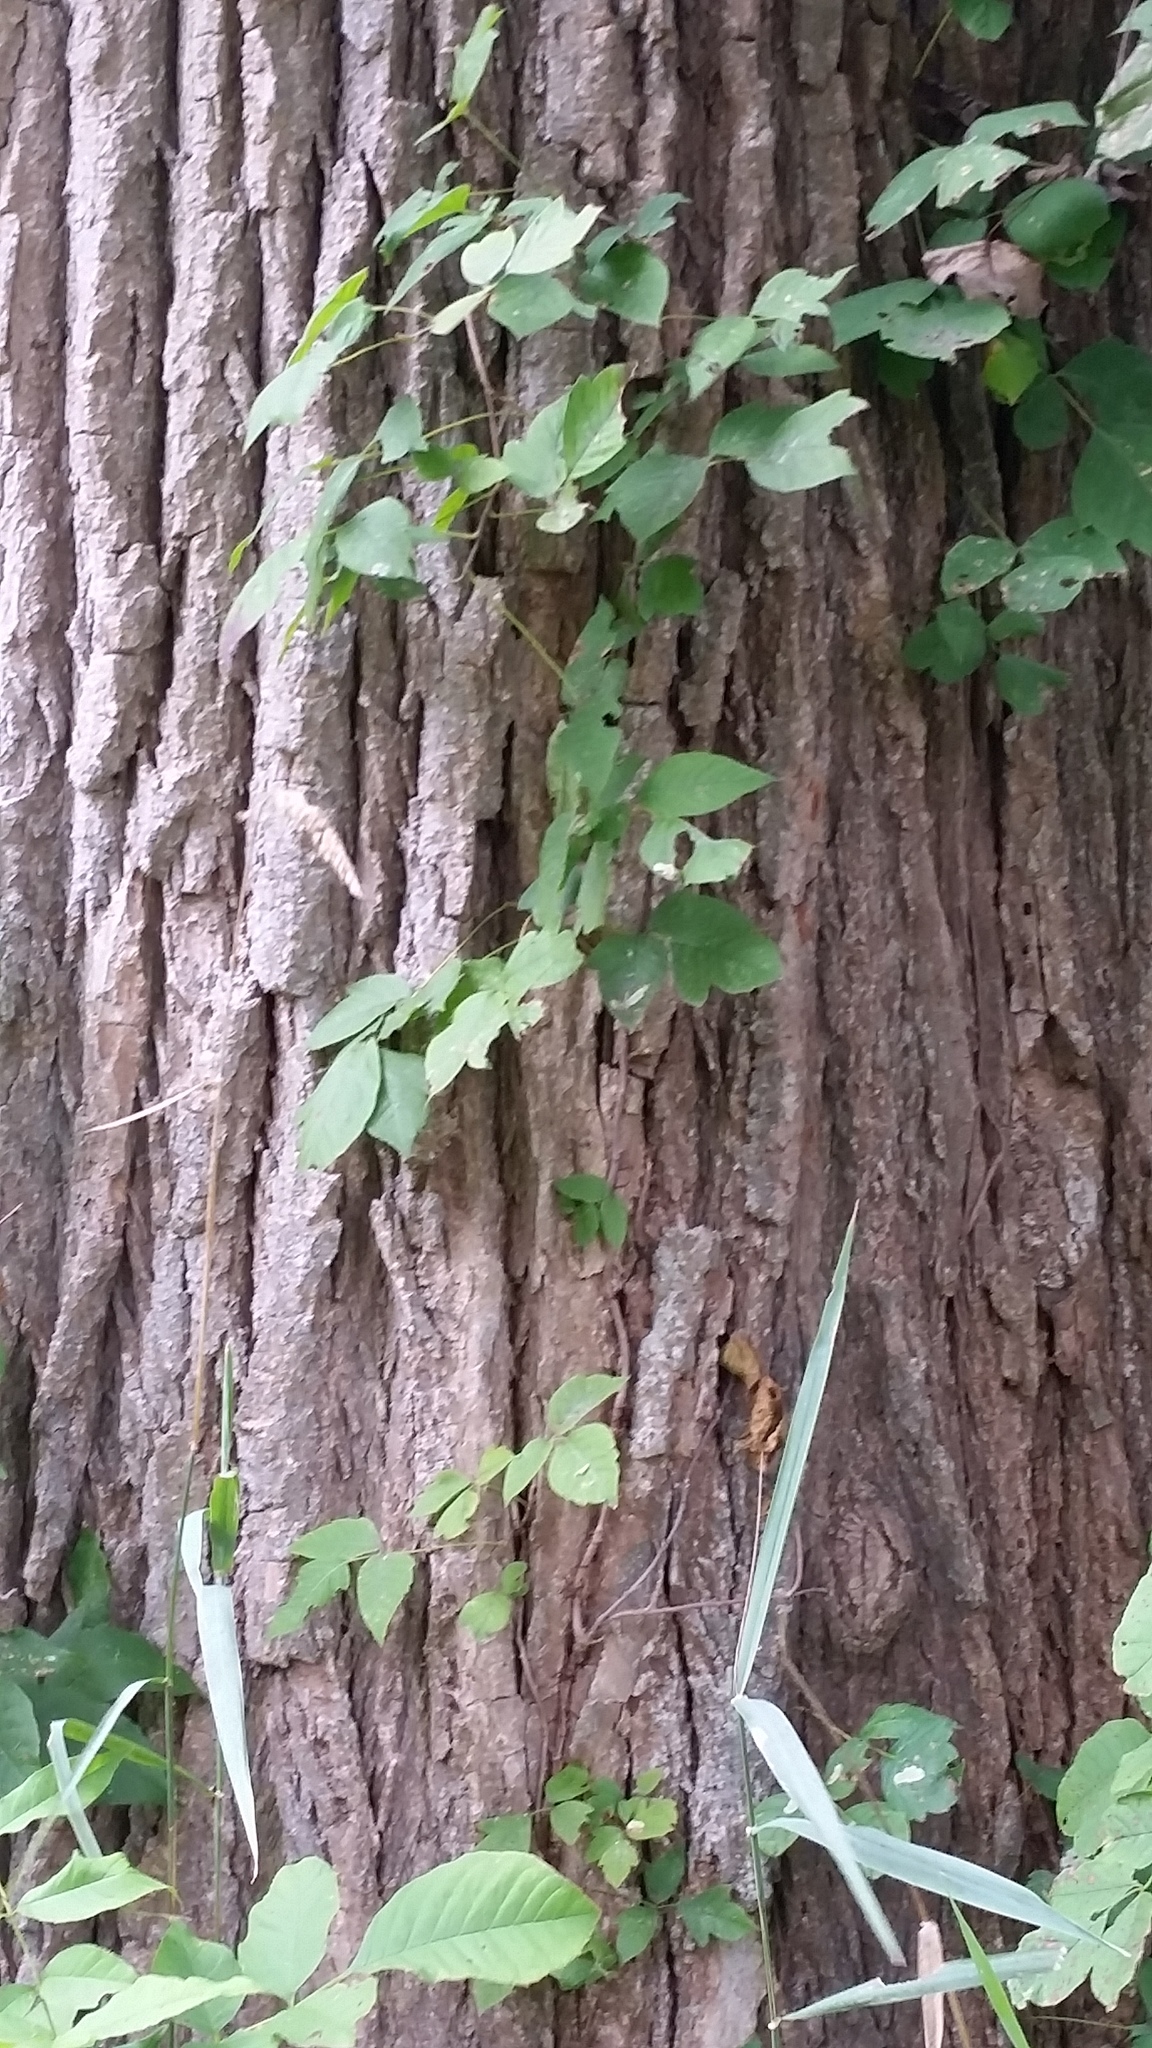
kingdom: Plantae
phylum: Tracheophyta
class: Magnoliopsida
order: Sapindales
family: Anacardiaceae
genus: Toxicodendron
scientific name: Toxicodendron radicans
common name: Poison ivy
